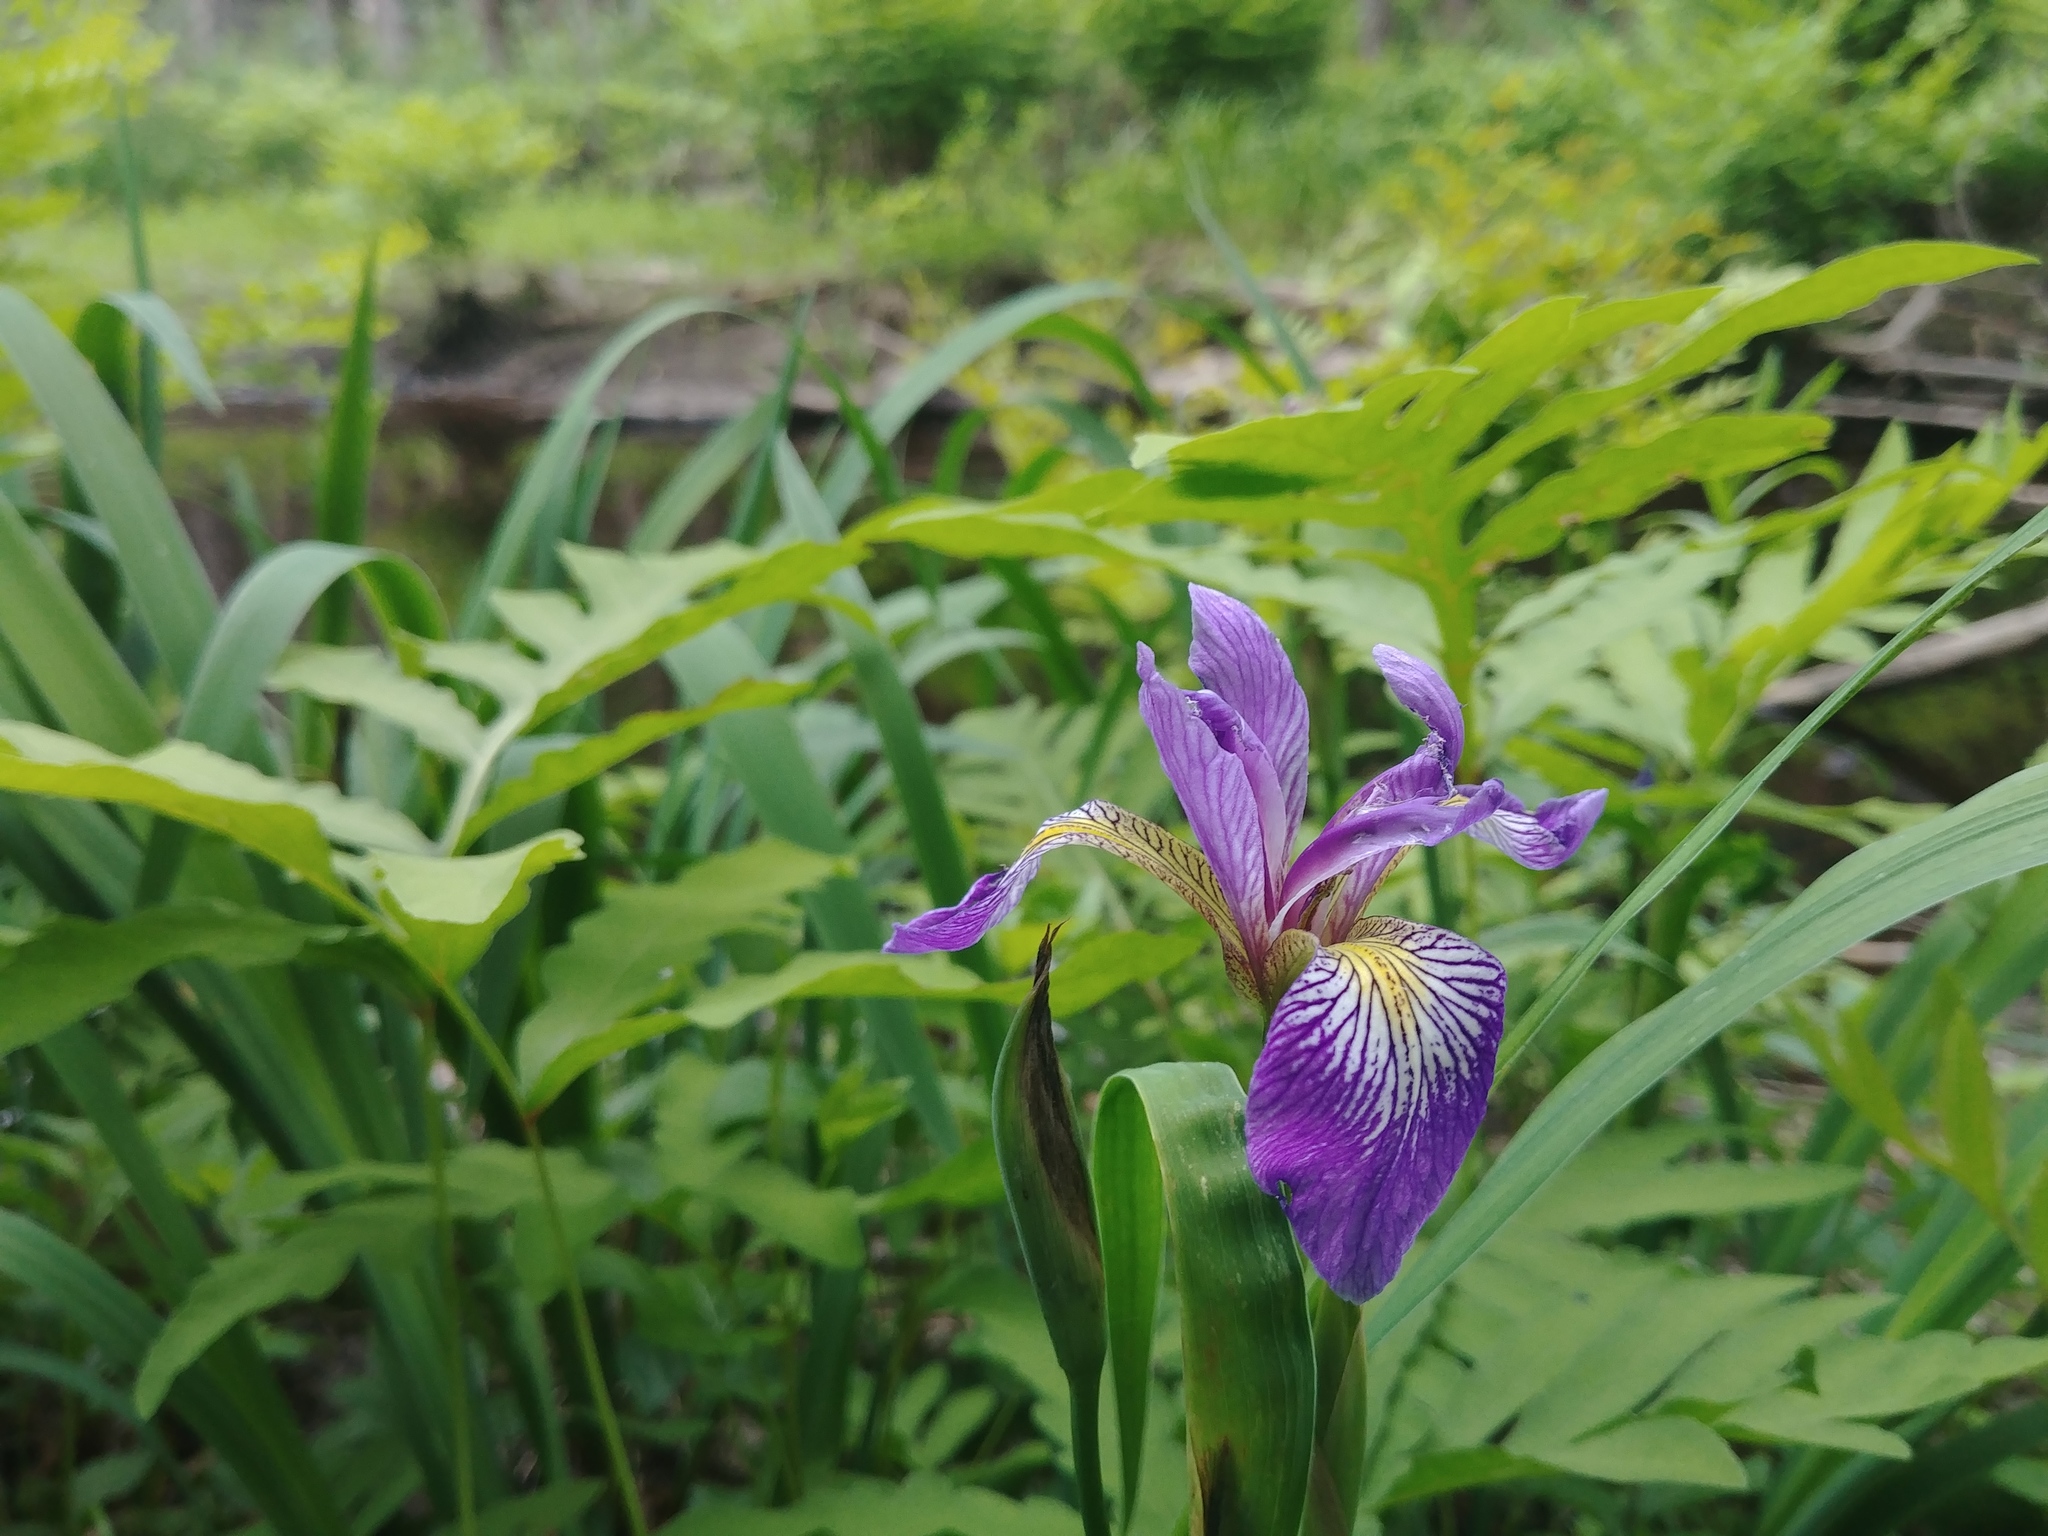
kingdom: Plantae
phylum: Tracheophyta
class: Liliopsida
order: Asparagales
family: Iridaceae
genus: Iris
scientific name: Iris versicolor
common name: Purple iris
